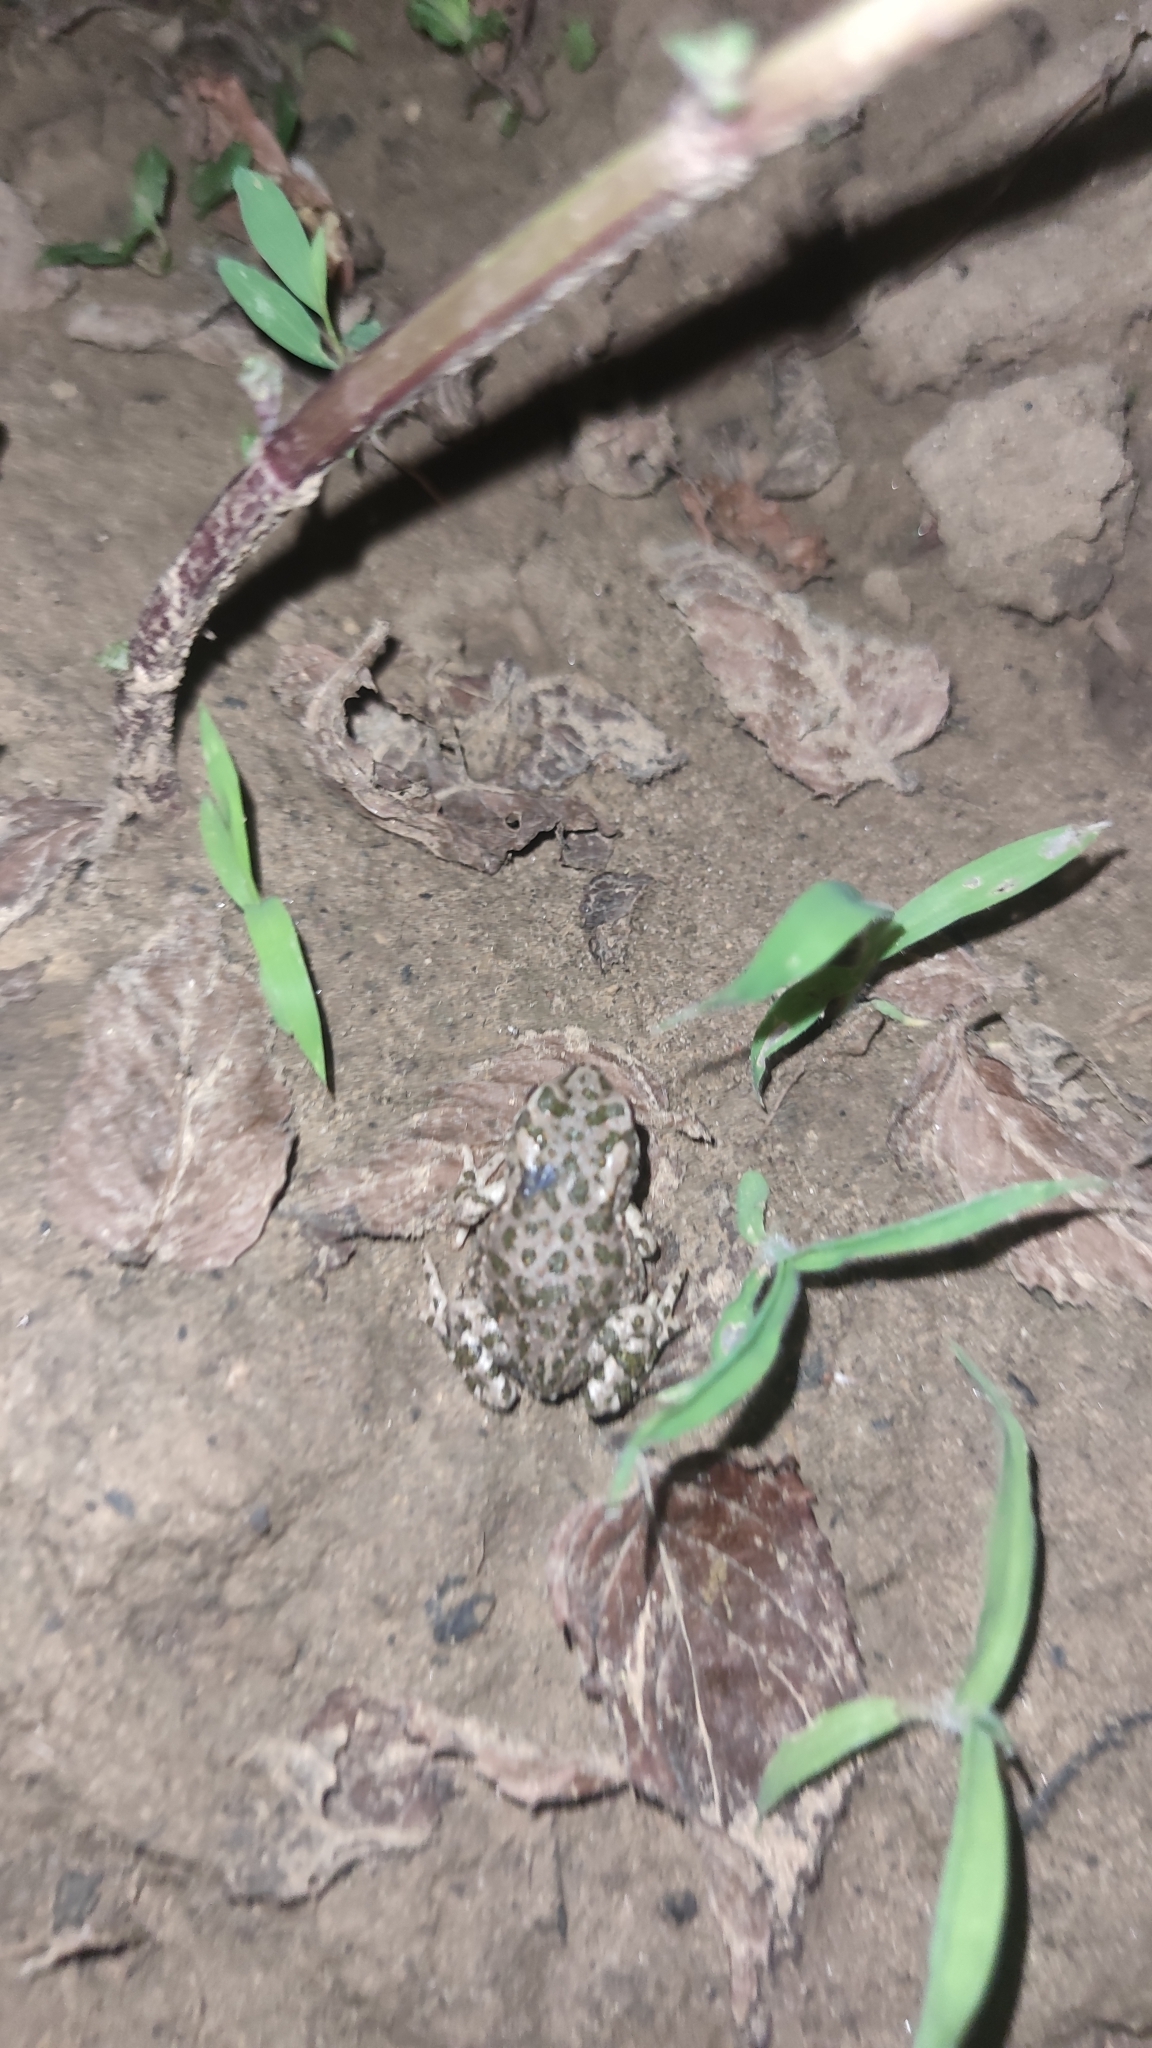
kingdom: Animalia
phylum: Chordata
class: Amphibia
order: Anura
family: Bufonidae
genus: Bufotes
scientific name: Bufotes viridis
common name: European green toad
